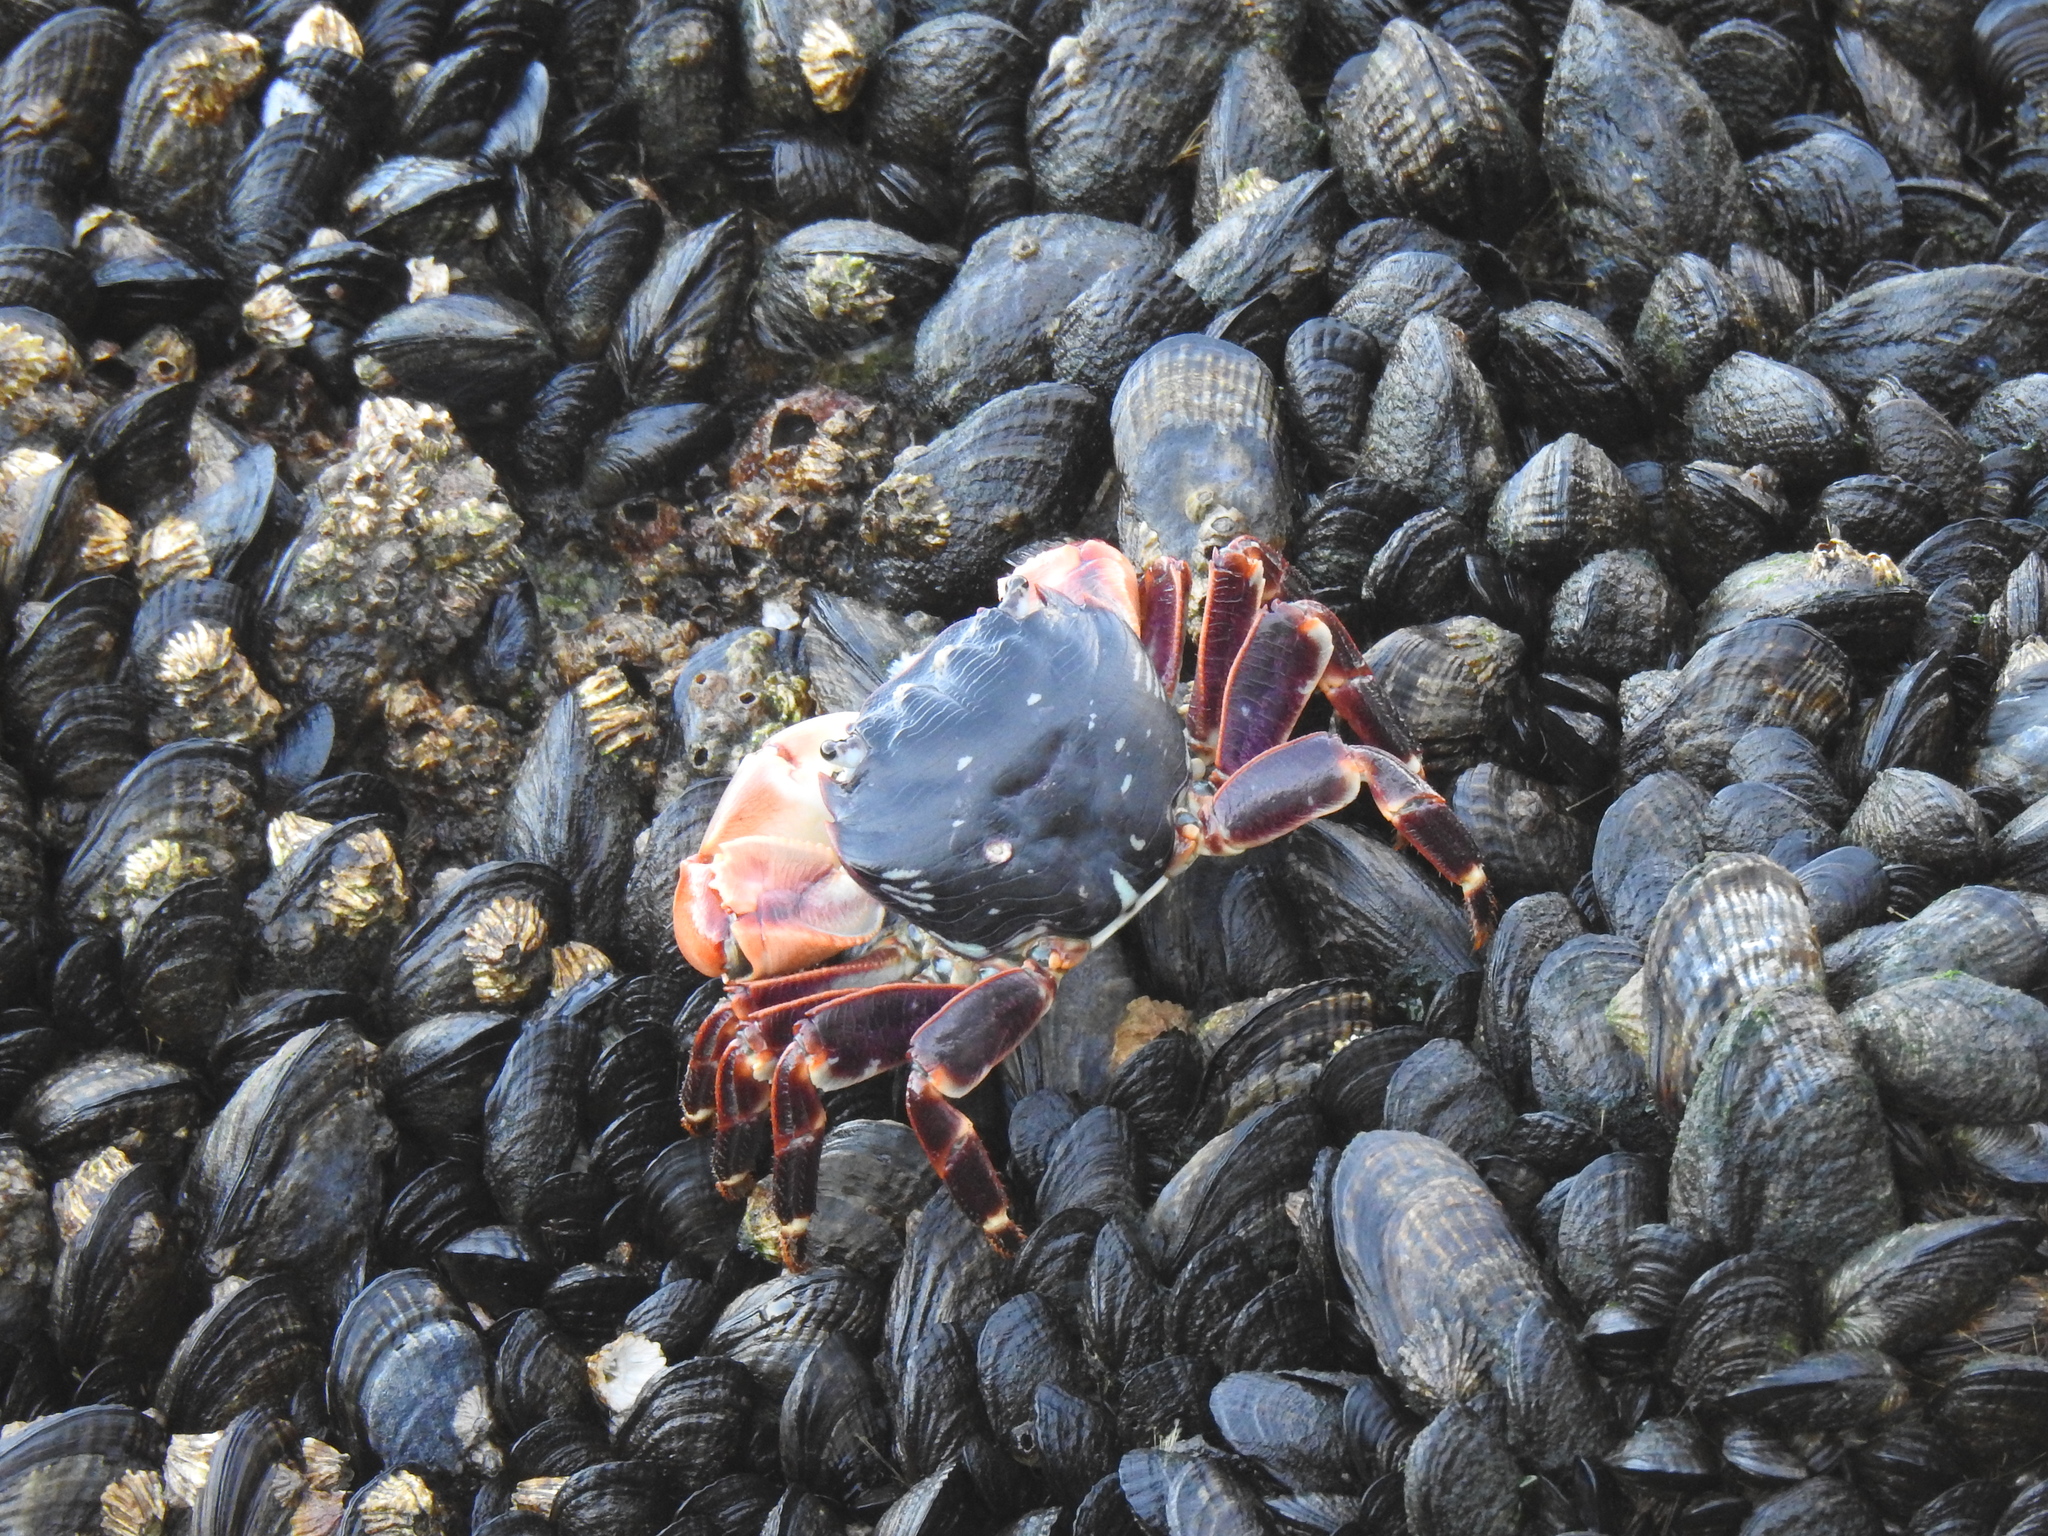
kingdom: Animalia
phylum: Arthropoda
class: Malacostraca
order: Decapoda
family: Grapsidae
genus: Pachygrapsus
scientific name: Pachygrapsus crassipes
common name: Striped shore crab
